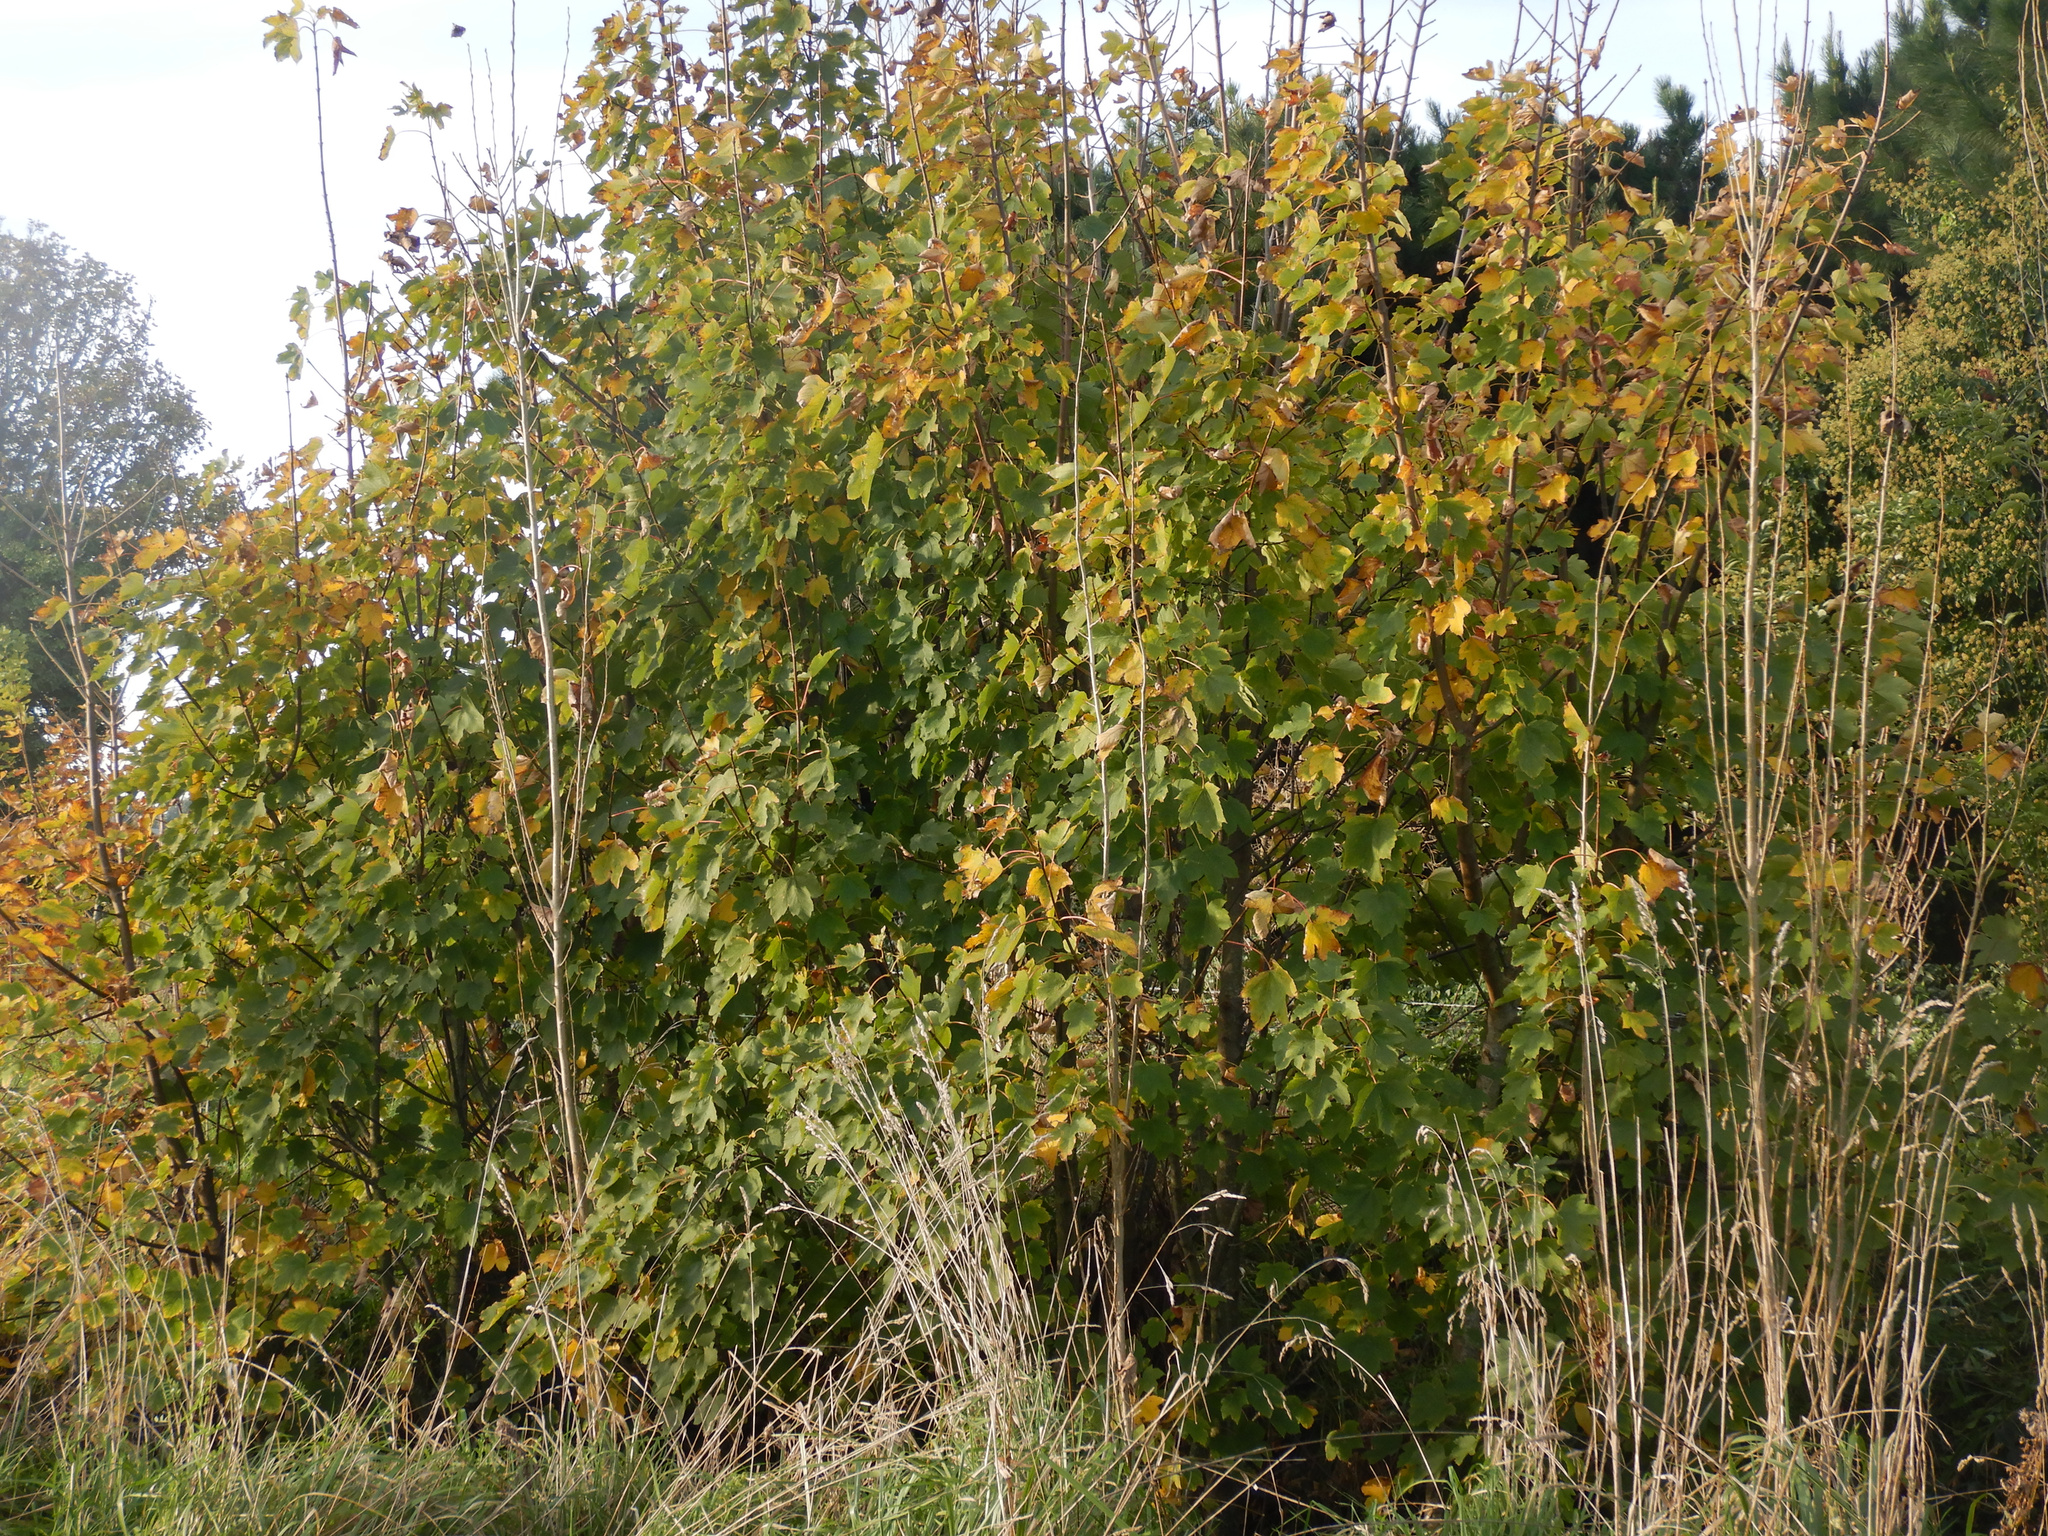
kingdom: Plantae
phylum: Tracheophyta
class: Magnoliopsida
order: Sapindales
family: Sapindaceae
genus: Acer
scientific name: Acer pseudoplatanus
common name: Sycamore
